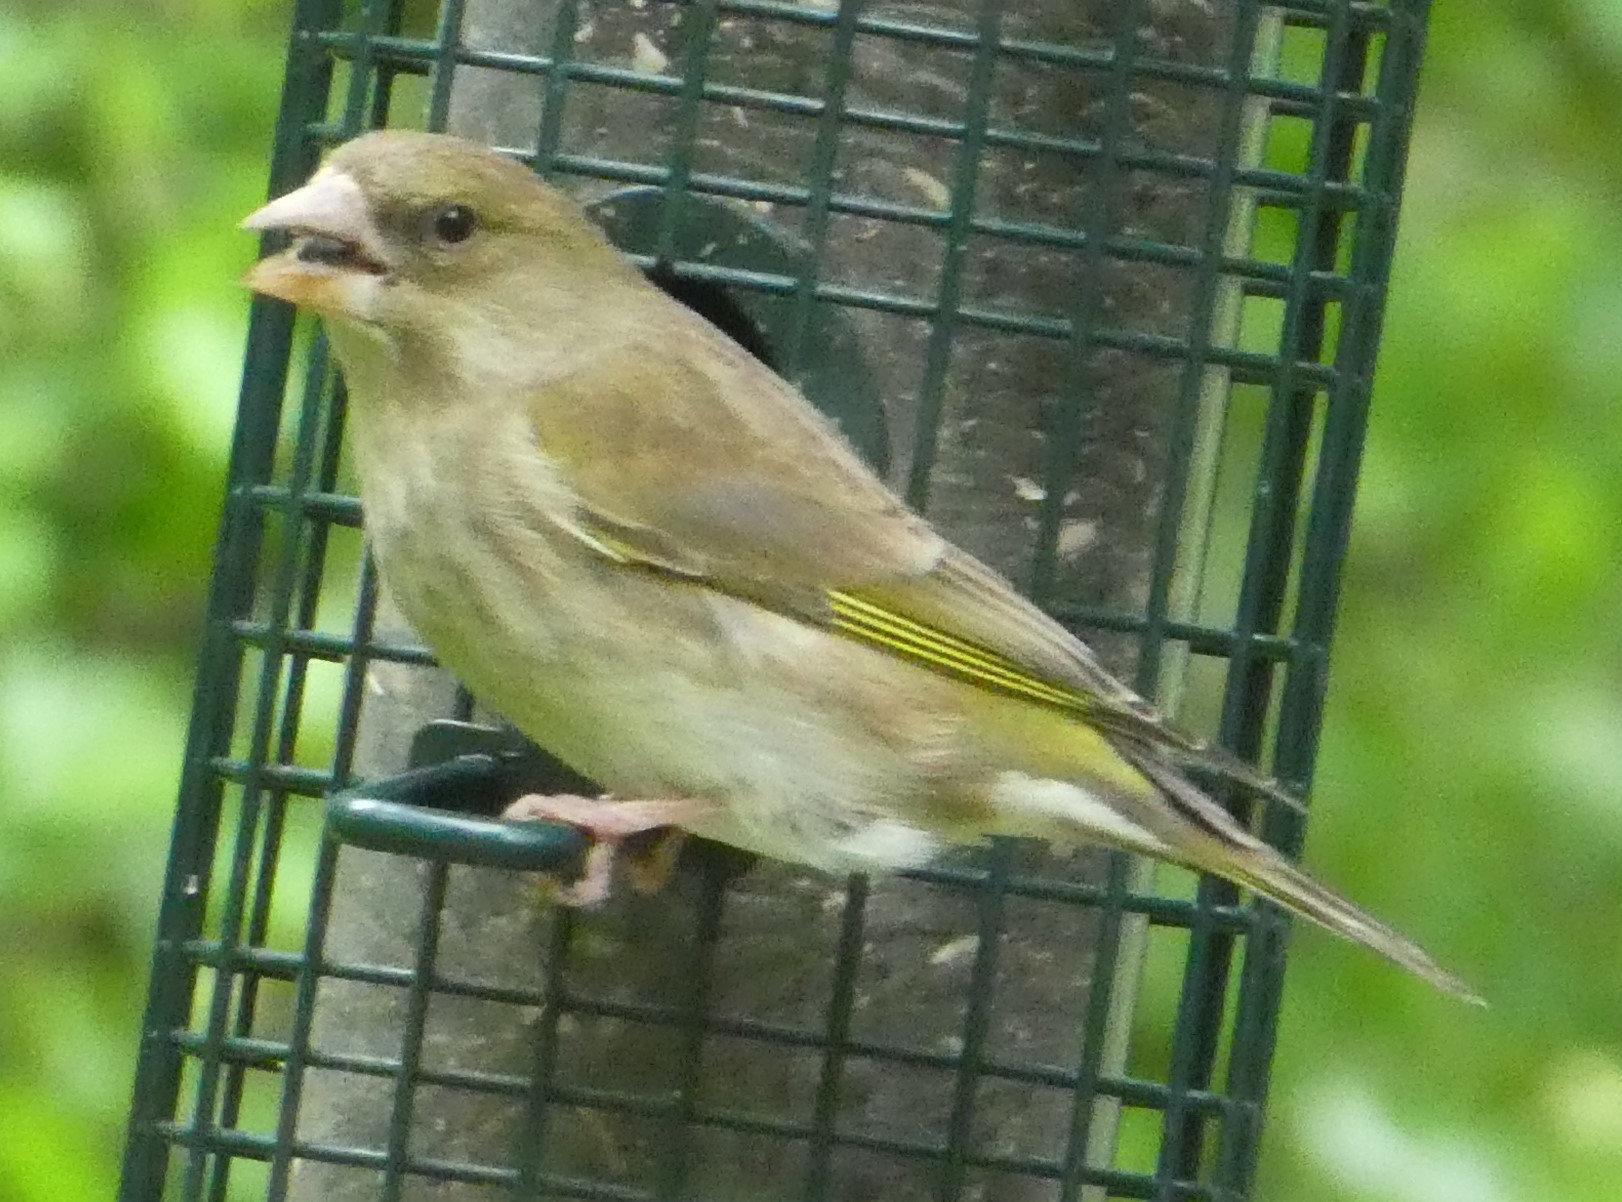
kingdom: Plantae
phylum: Tracheophyta
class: Liliopsida
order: Poales
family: Poaceae
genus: Chloris
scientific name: Chloris chloris
